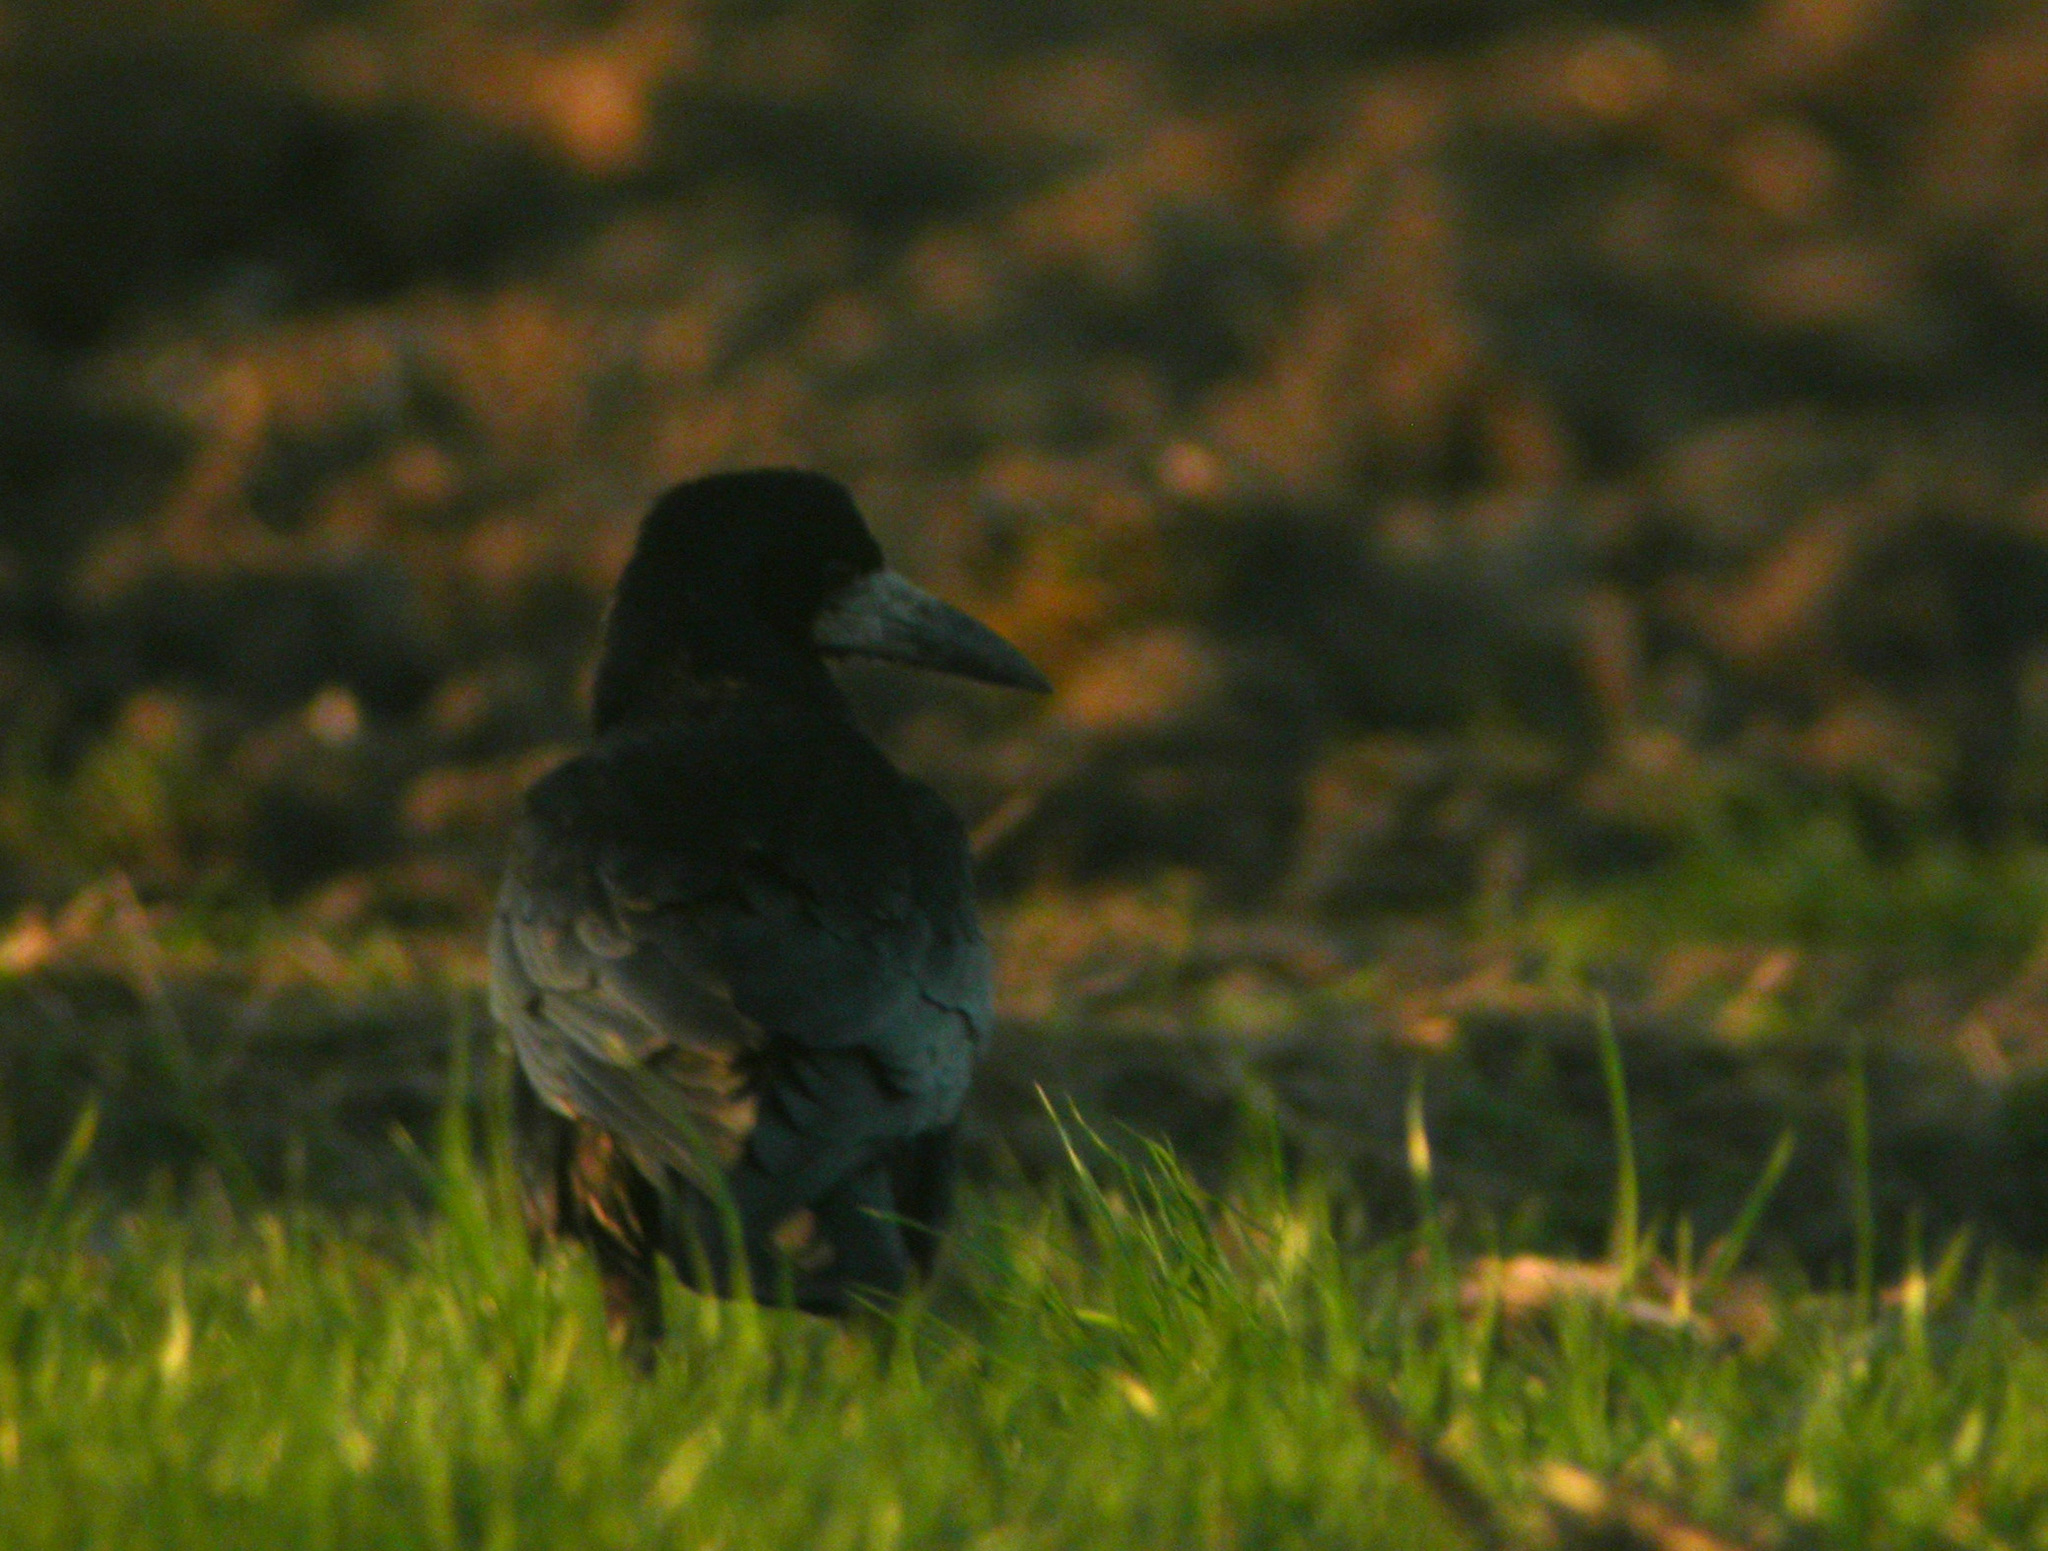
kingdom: Animalia
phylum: Chordata
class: Aves
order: Passeriformes
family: Corvidae
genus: Corvus
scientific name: Corvus frugilegus
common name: Rook
